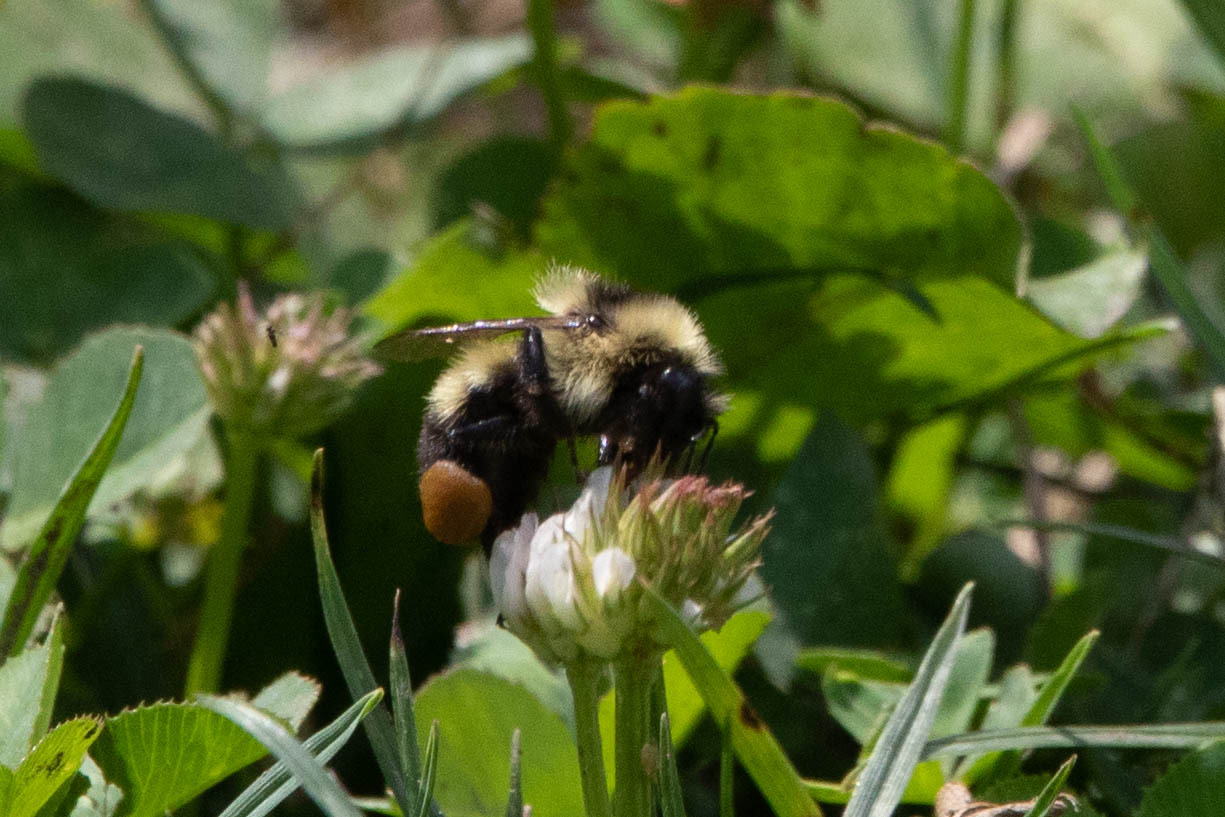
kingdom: Animalia
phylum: Arthropoda
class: Insecta
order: Hymenoptera
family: Apidae
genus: Bombus
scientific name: Bombus rufocinctus
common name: Red-belted bumble bee
